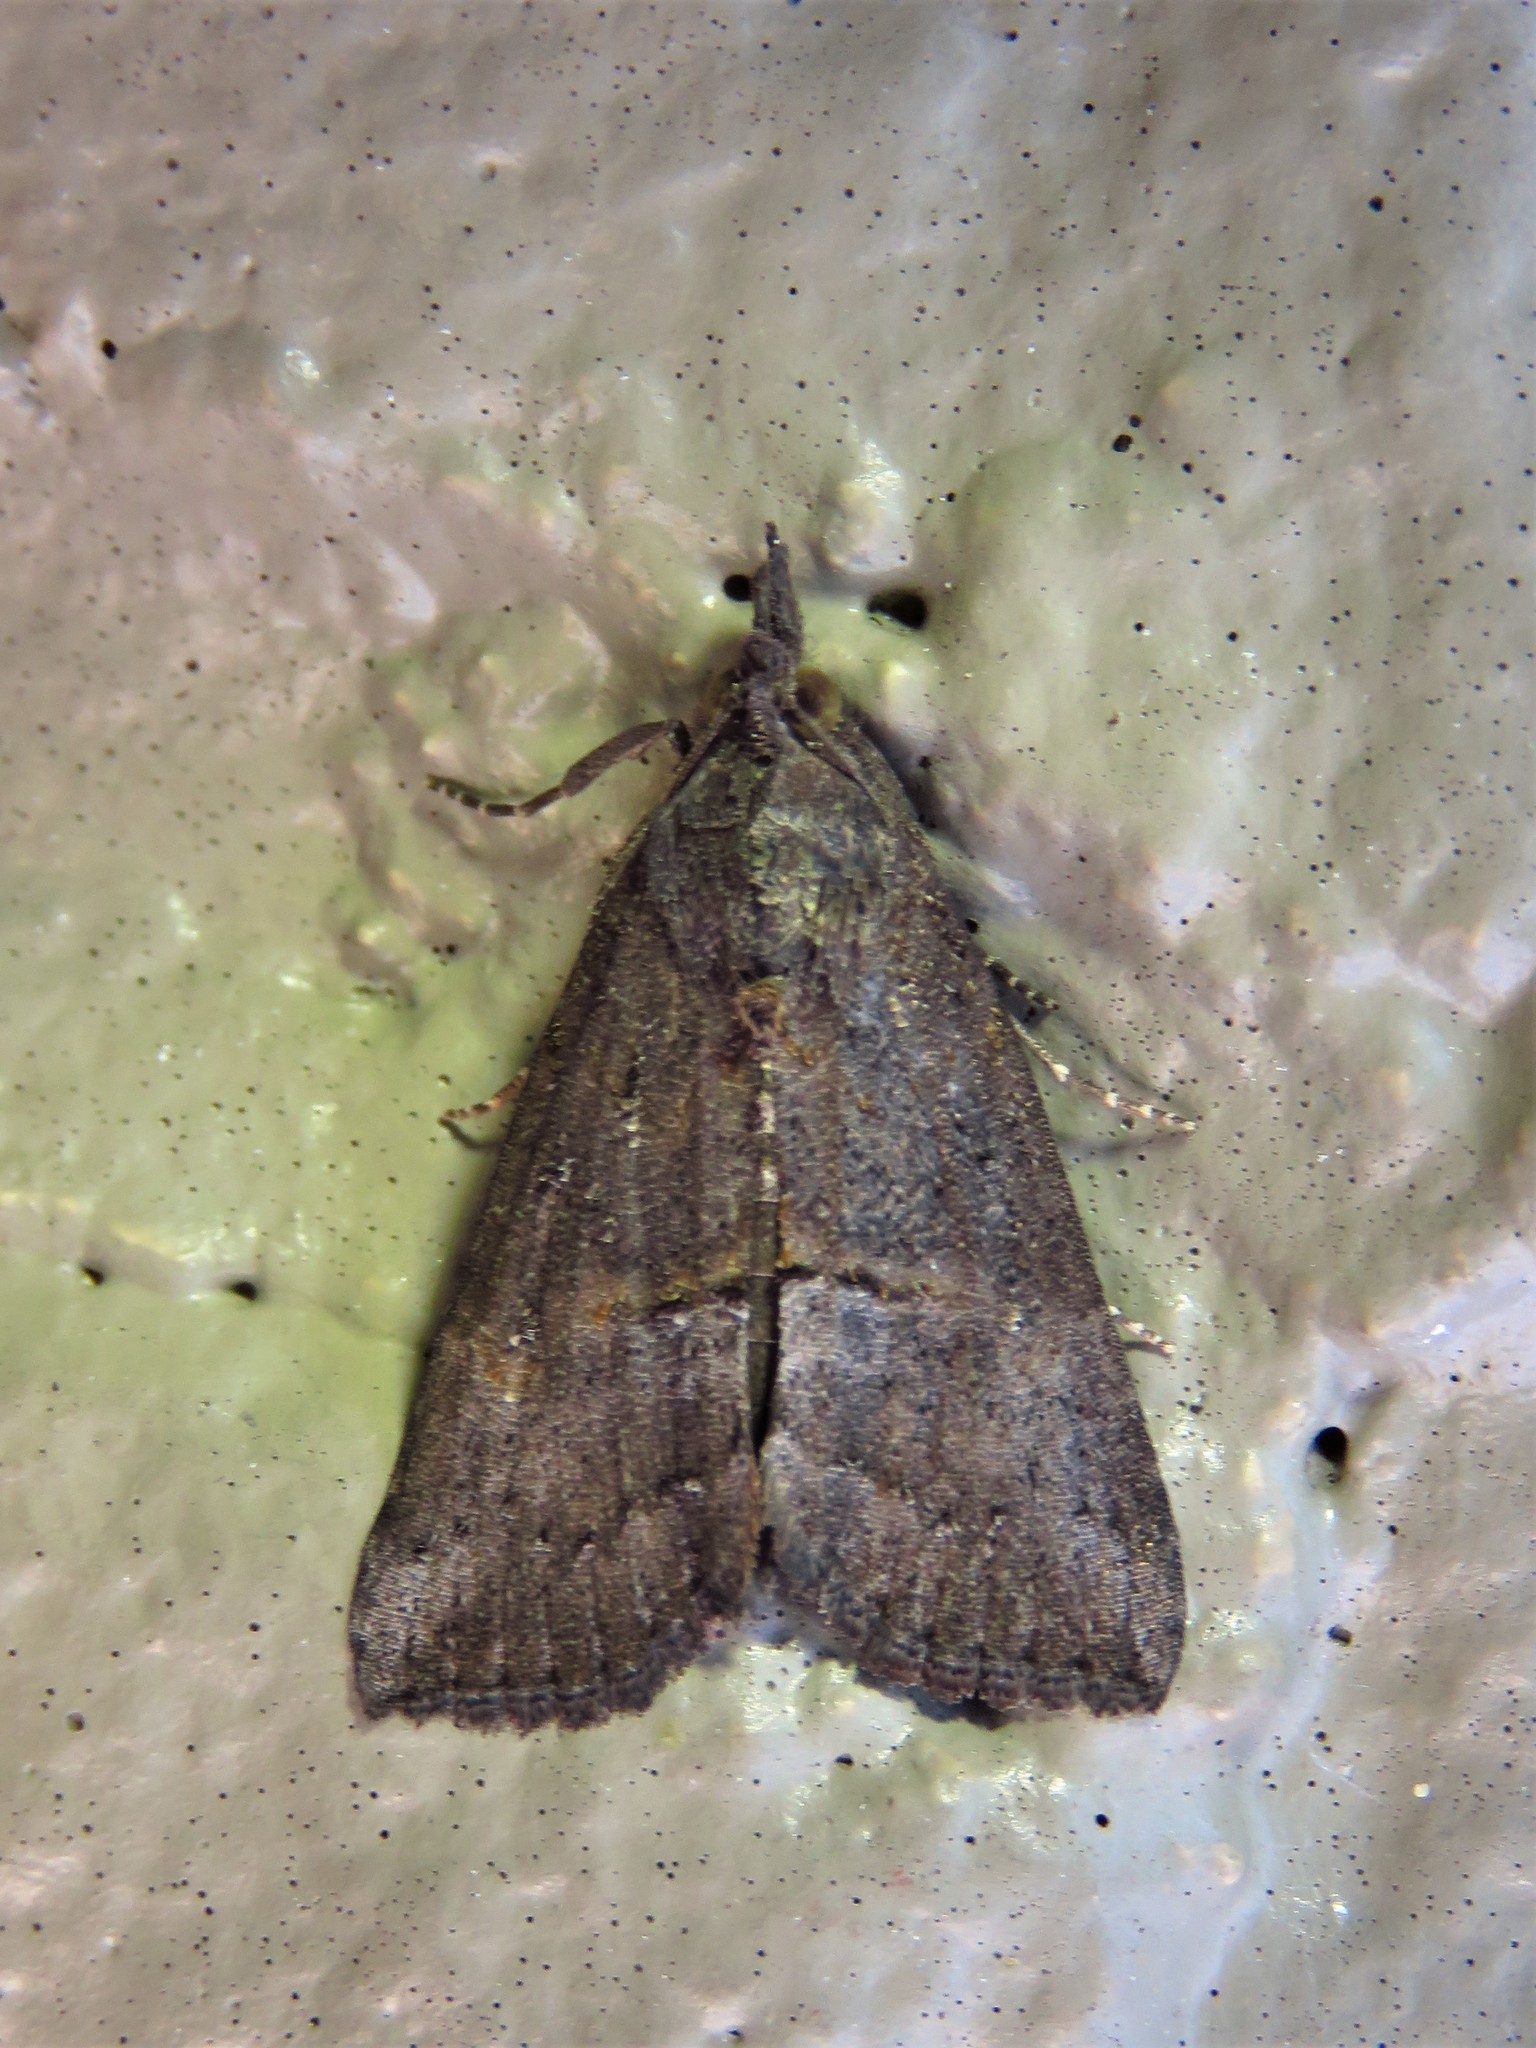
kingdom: Animalia
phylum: Arthropoda
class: Insecta
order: Lepidoptera
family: Erebidae
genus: Hypena
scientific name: Hypena scabra
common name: Green cloverworm
